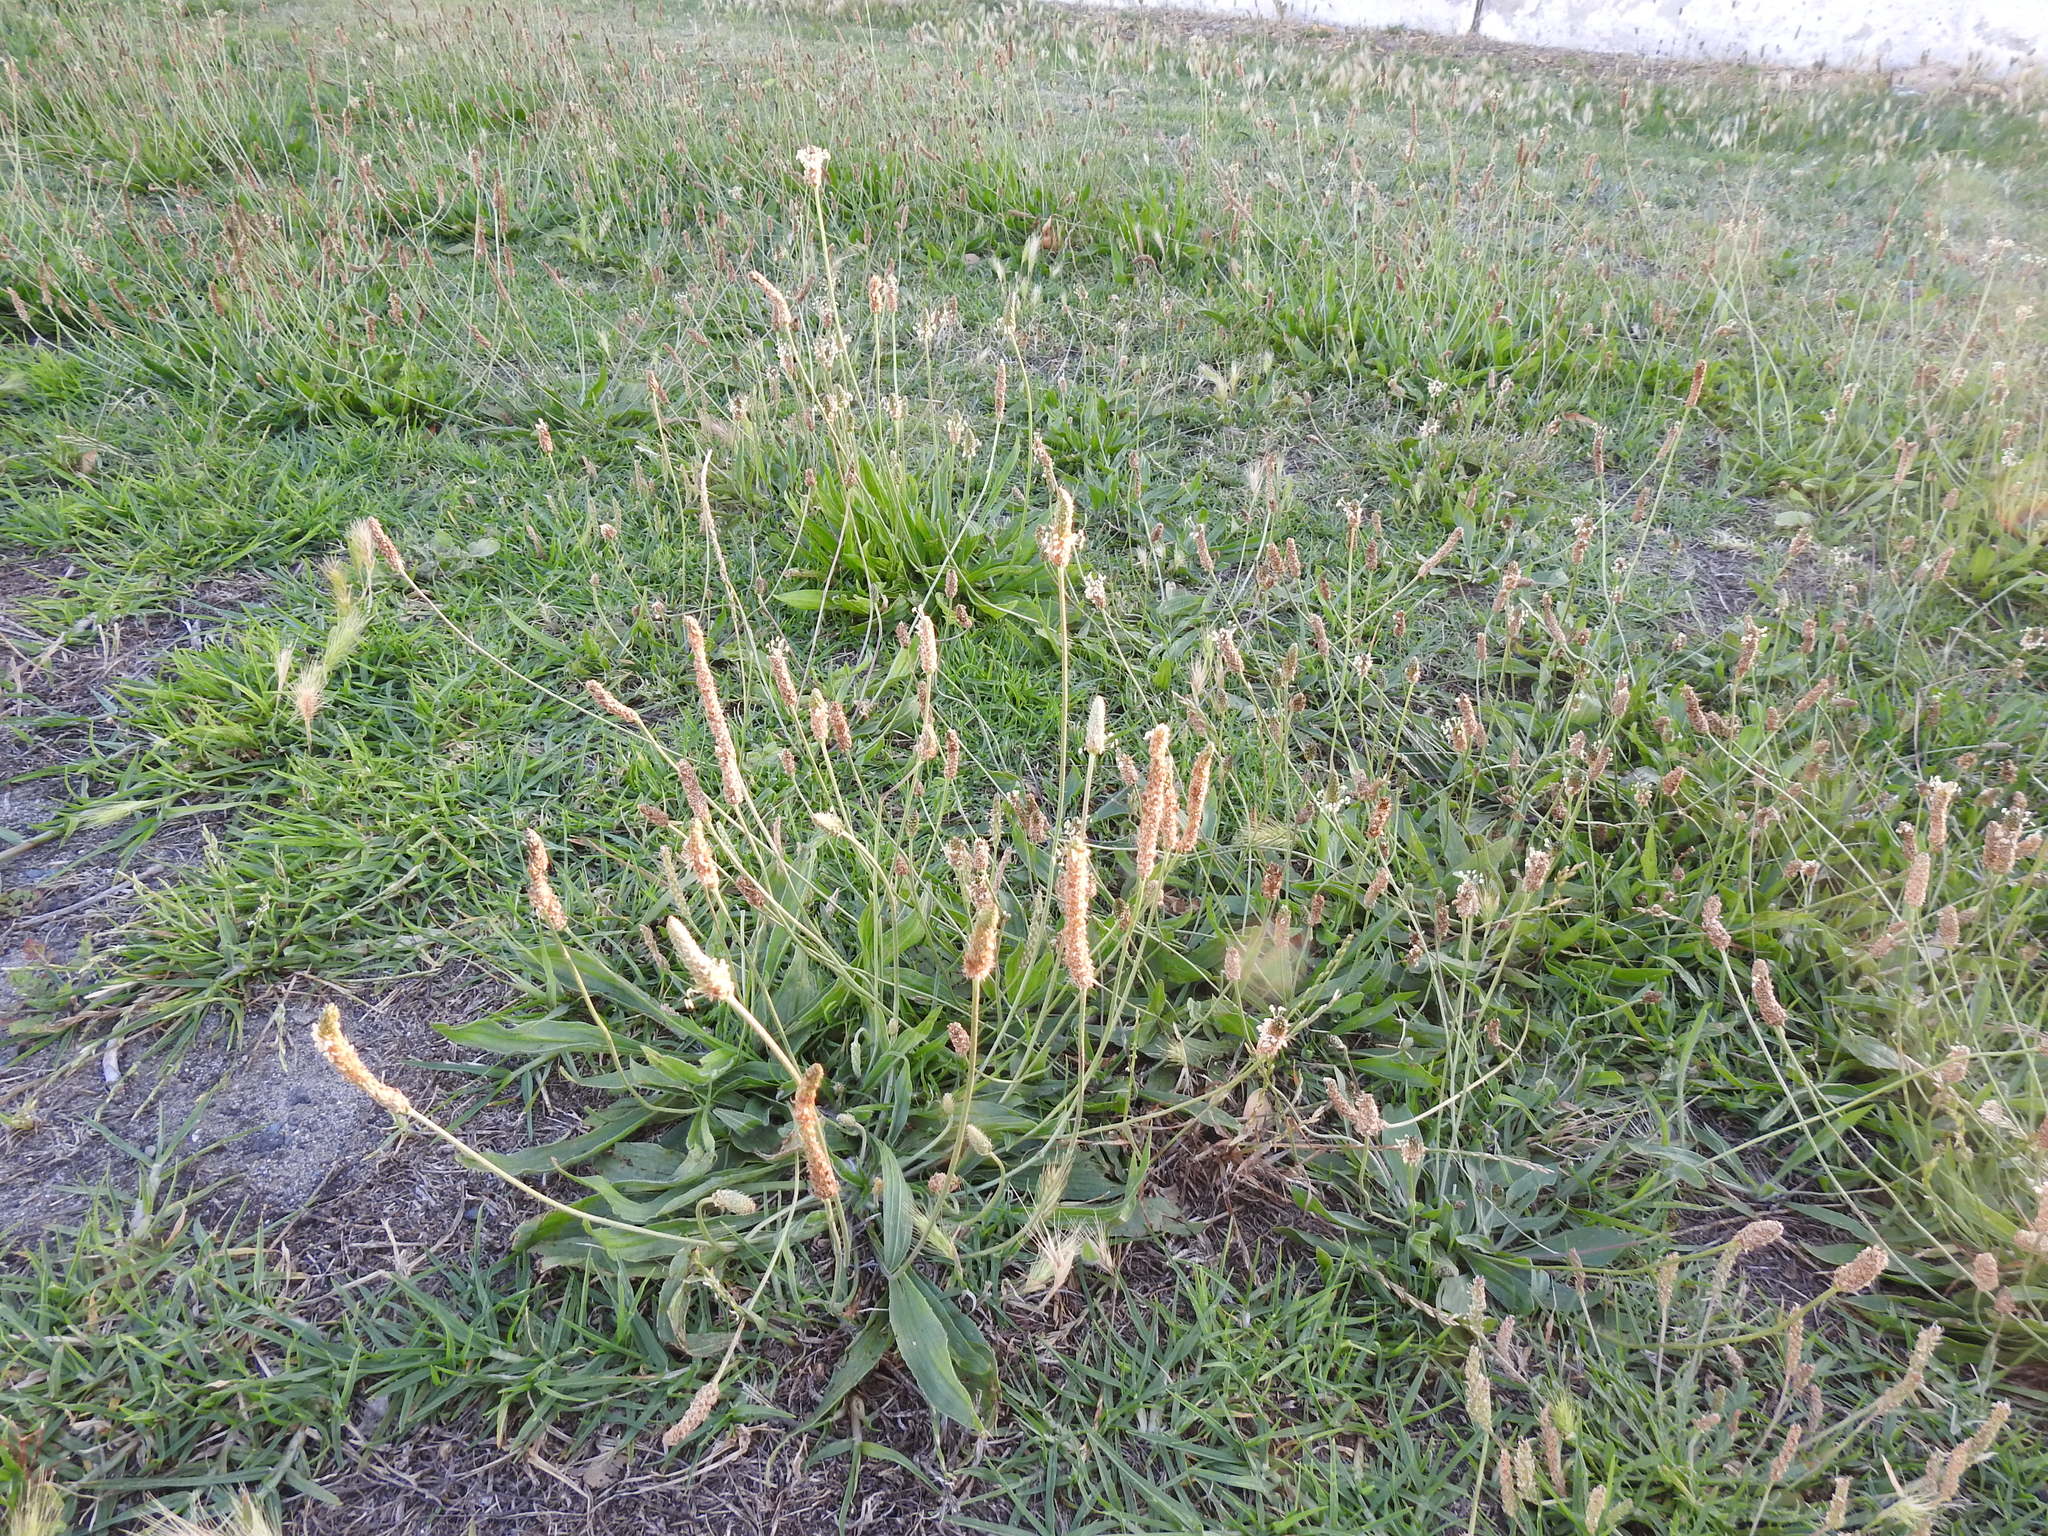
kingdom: Plantae
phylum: Tracheophyta
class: Magnoliopsida
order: Lamiales
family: Plantaginaceae
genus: Plantago
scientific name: Plantago lanceolata
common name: Ribwort plantain
